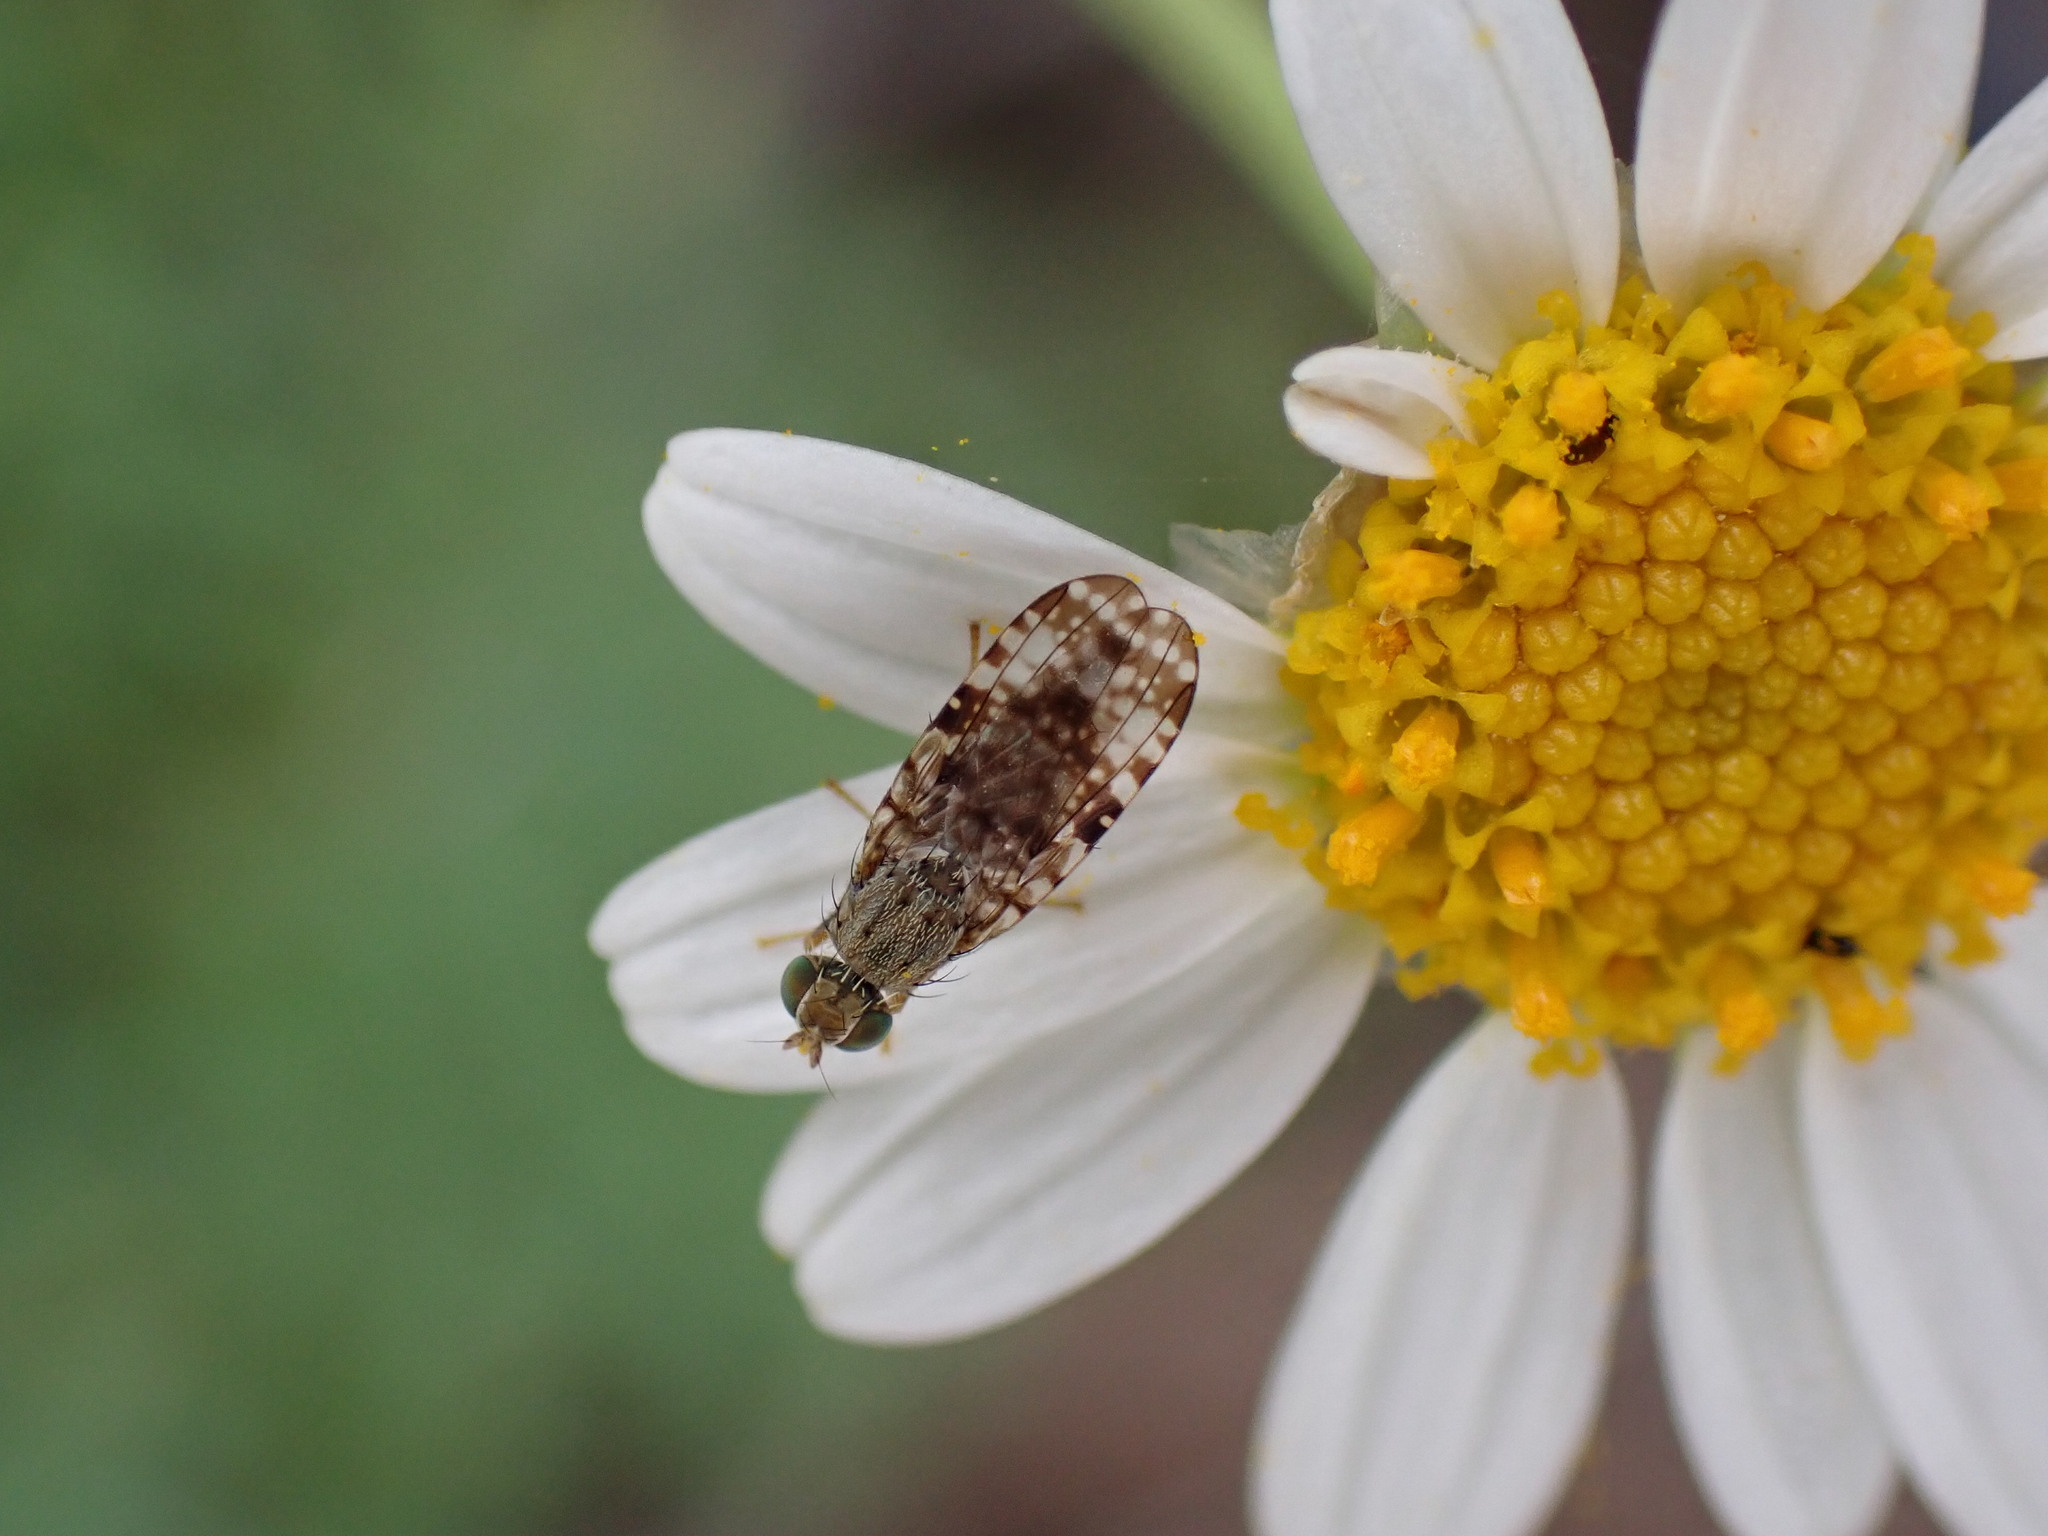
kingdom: Animalia
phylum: Arthropoda
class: Insecta
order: Diptera
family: Tephritidae
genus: Campiglossa
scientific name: Campiglossa duplex
